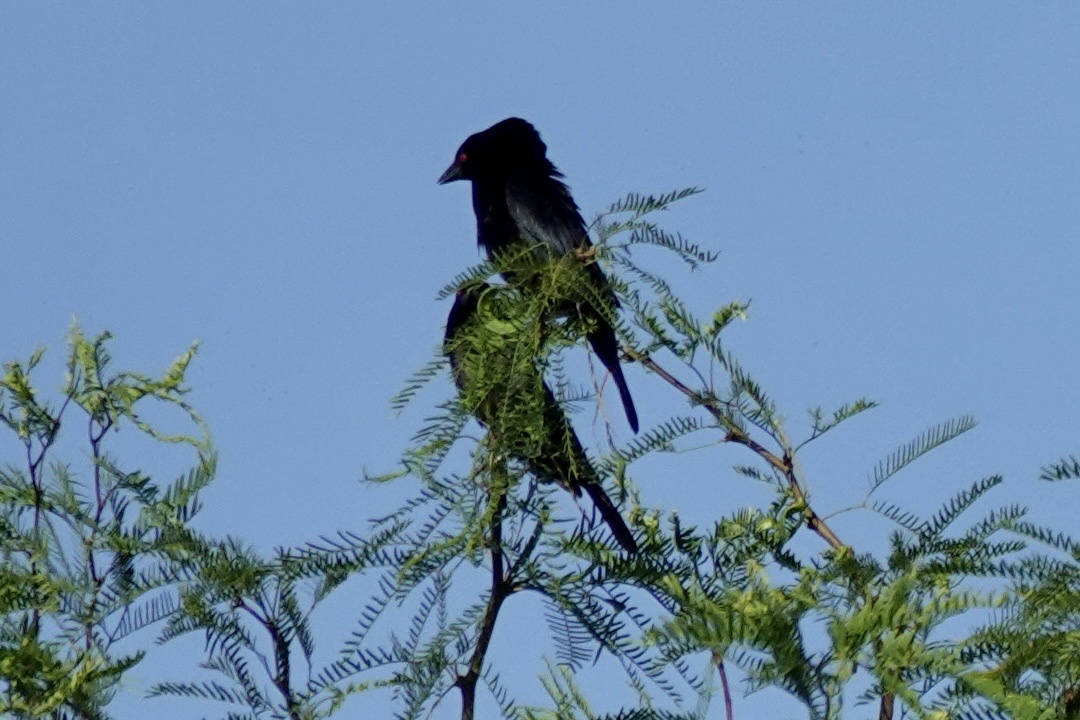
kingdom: Animalia
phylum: Chordata
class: Aves
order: Passeriformes
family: Icteridae
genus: Molothrus
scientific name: Molothrus aeneus
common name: Bronzed cowbird
